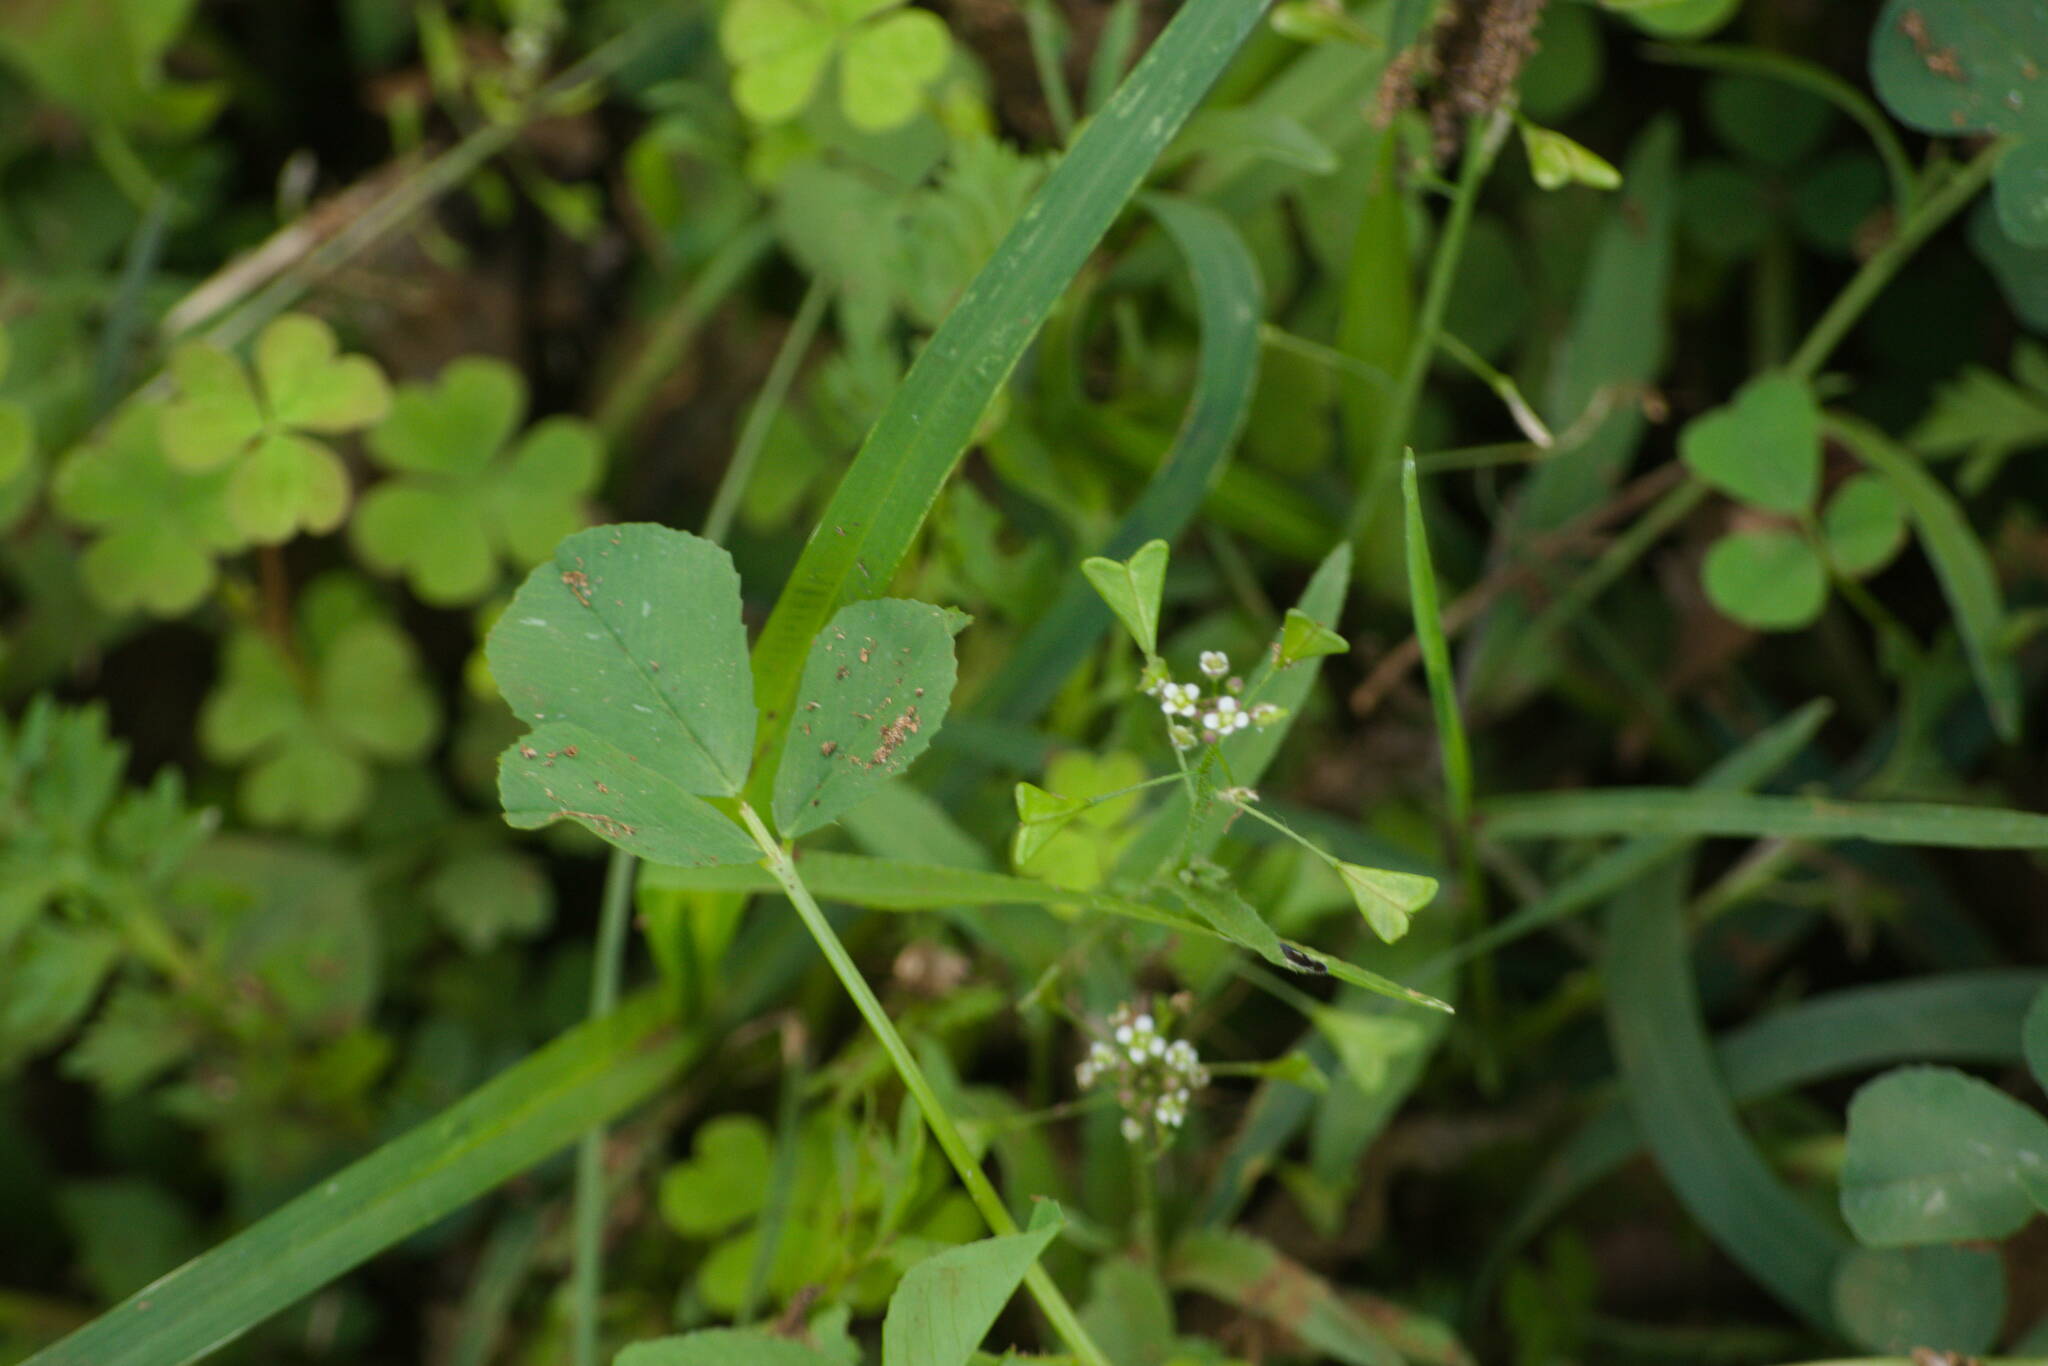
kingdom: Plantae
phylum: Tracheophyta
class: Magnoliopsida
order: Brassicales
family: Brassicaceae
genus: Capsella
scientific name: Capsella bursa-pastoris
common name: Shepherd's purse
